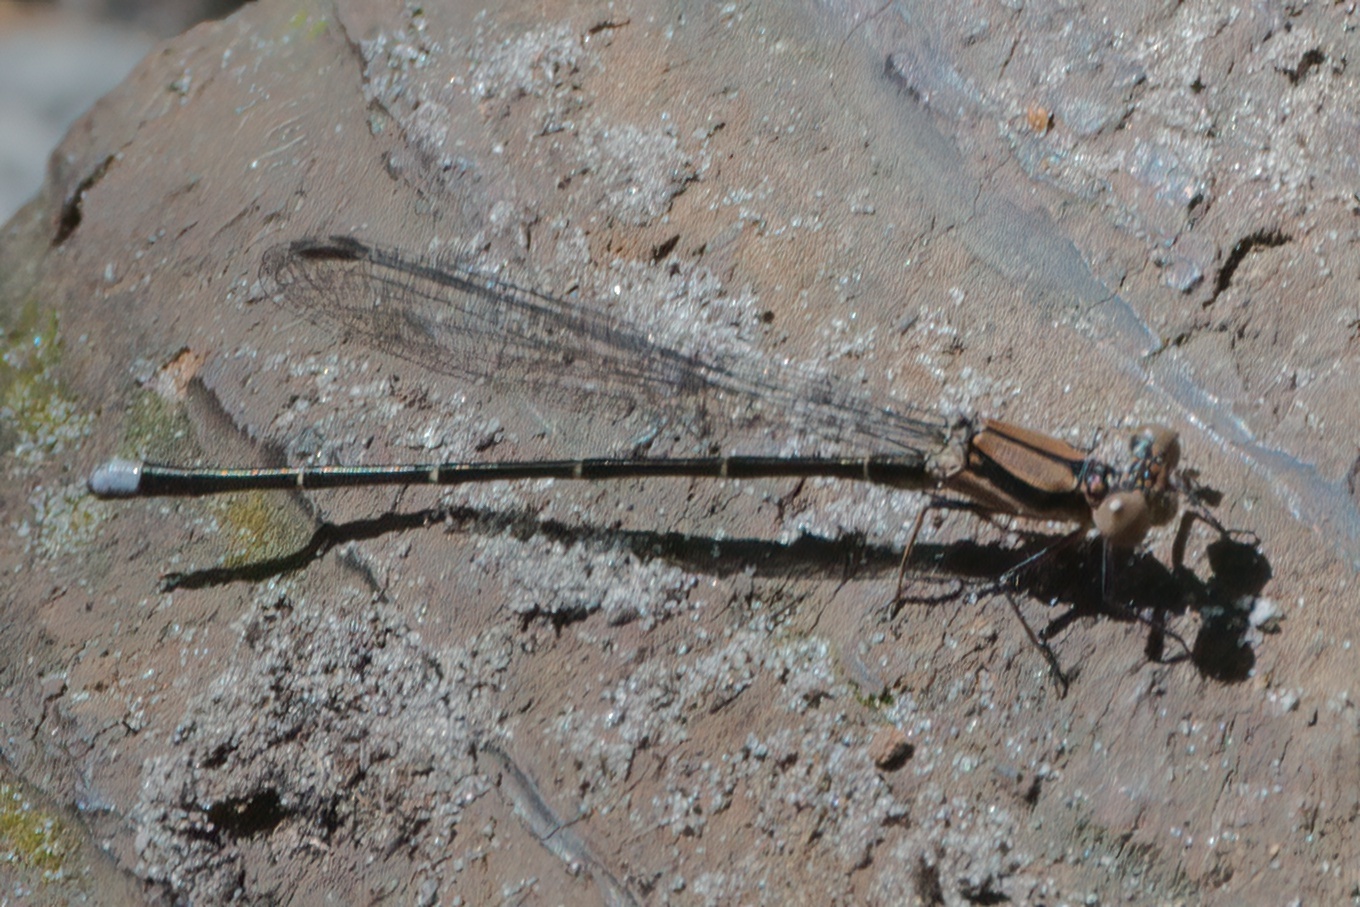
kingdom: Animalia
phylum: Arthropoda
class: Insecta
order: Odonata
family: Coenagrionidae
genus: Argia
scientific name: Argia tibialis
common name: Blue-tipped dancer
